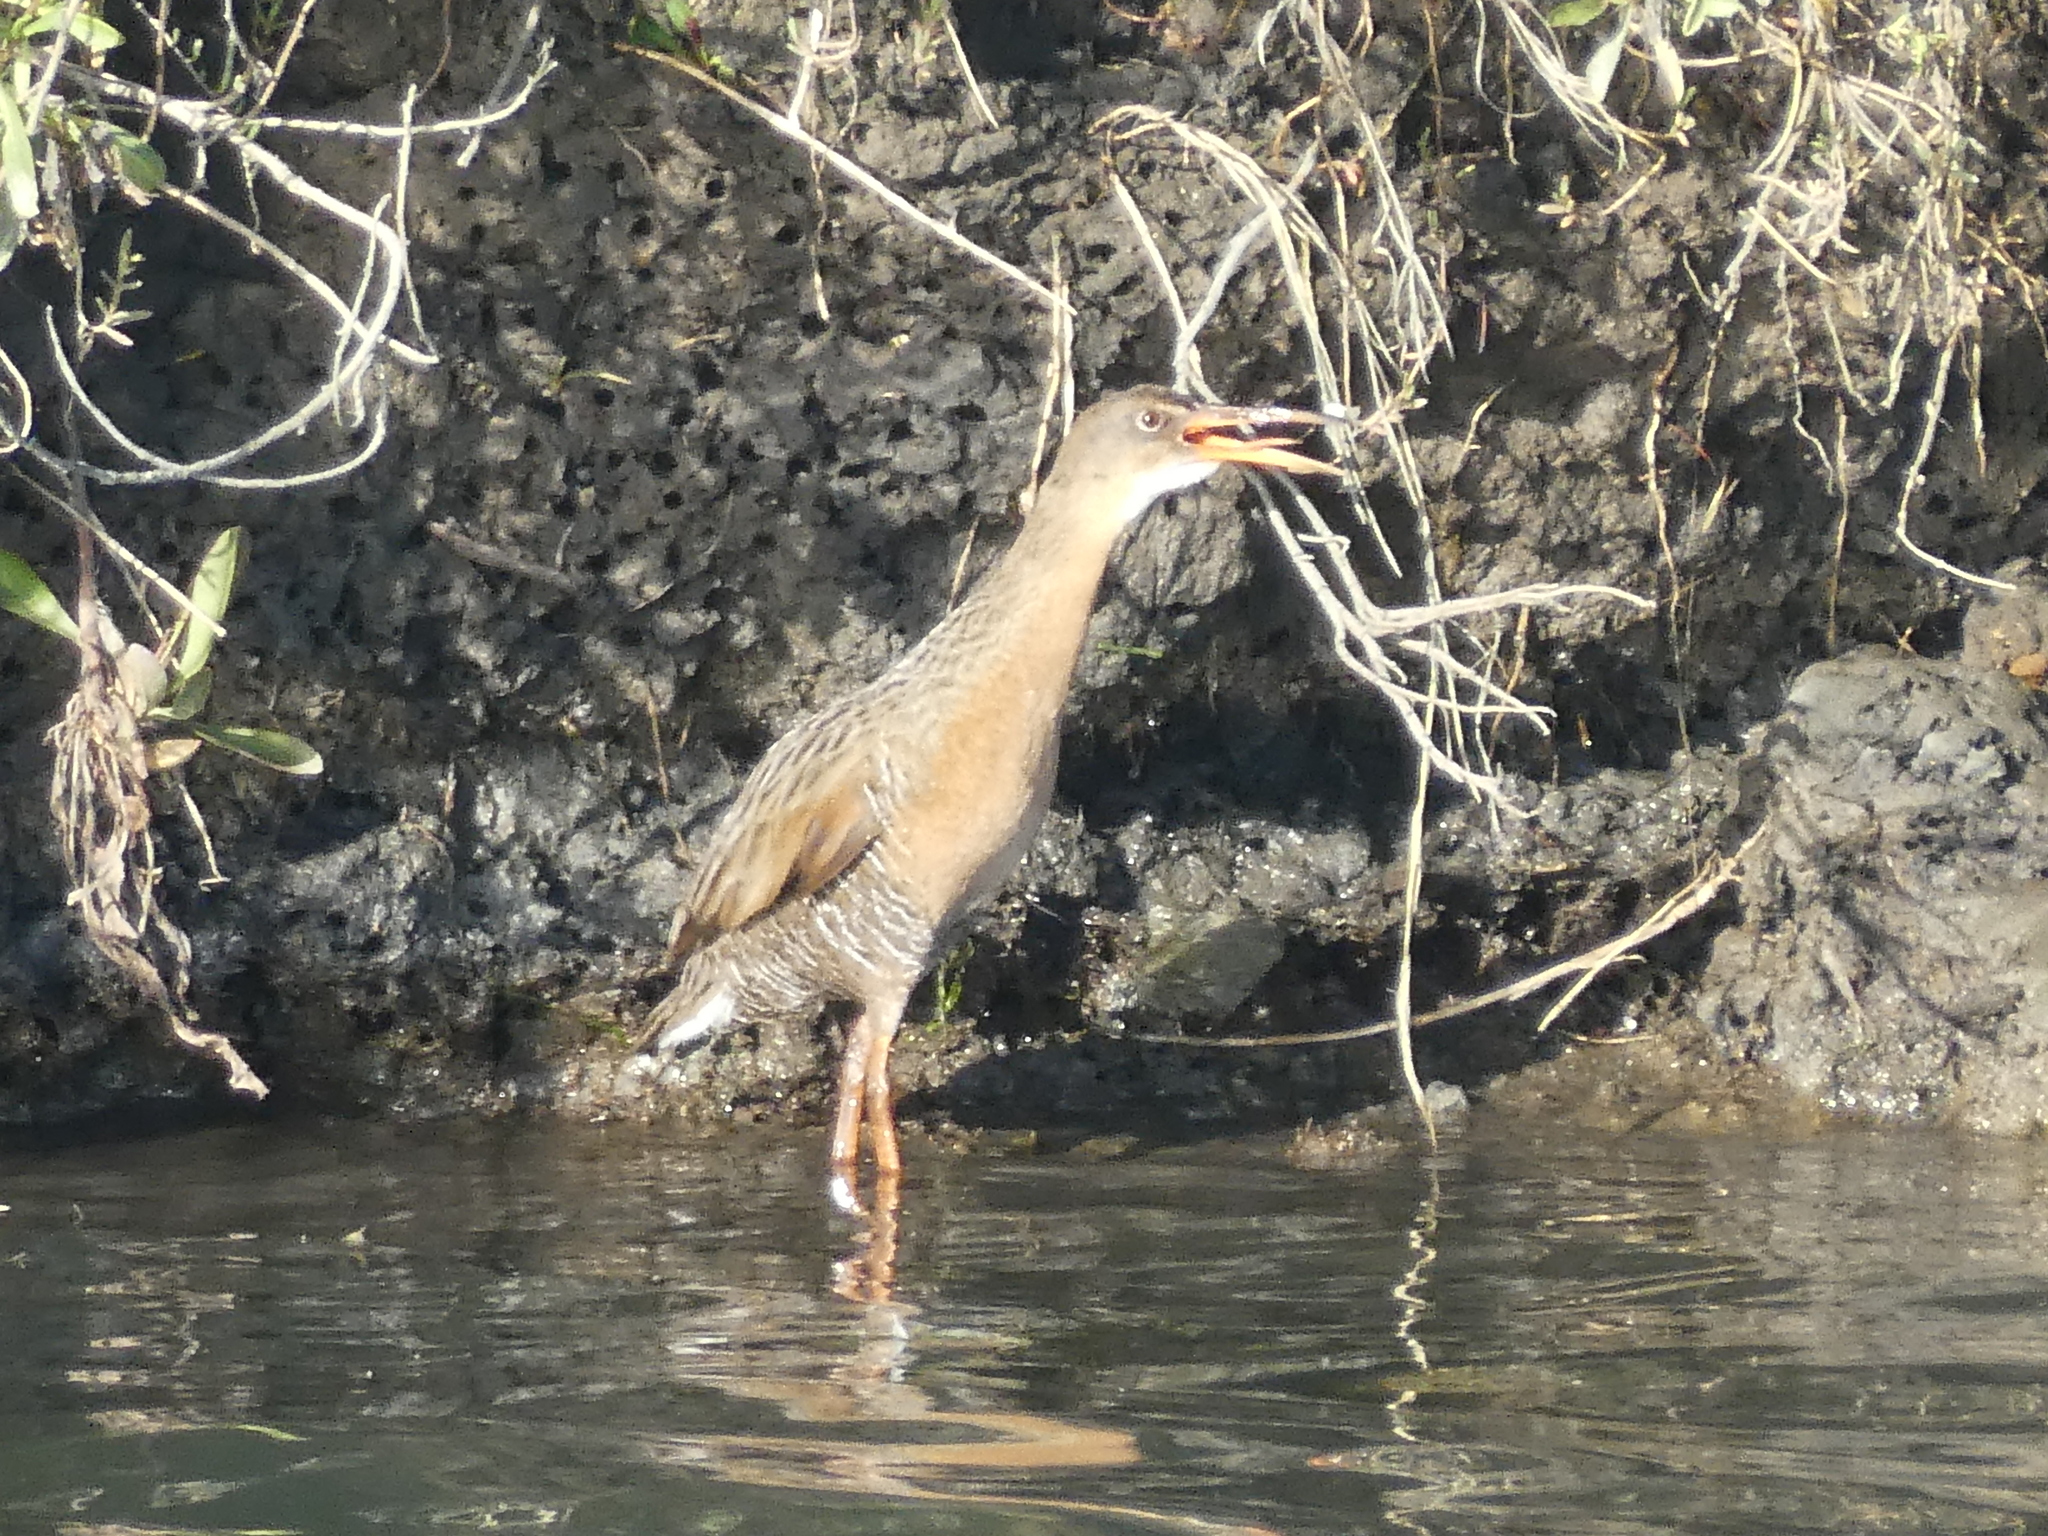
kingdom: Animalia
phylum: Chordata
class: Aves
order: Gruiformes
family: Rallidae
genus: Rallus
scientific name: Rallus obsoletus
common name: Ridgway's rail
